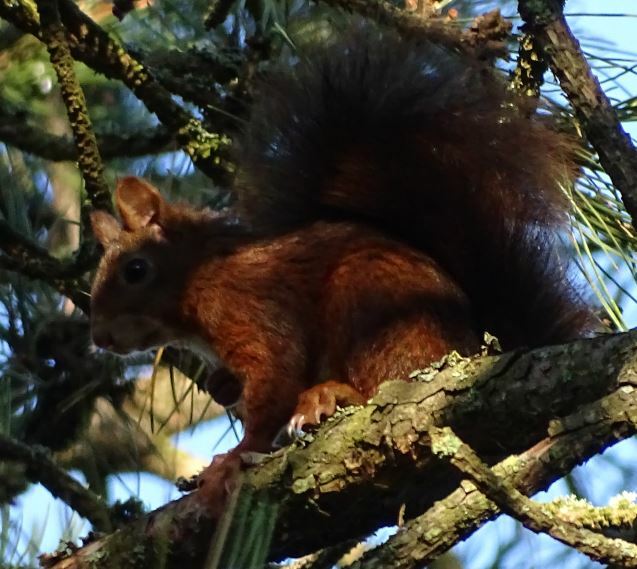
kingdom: Animalia
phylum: Chordata
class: Mammalia
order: Rodentia
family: Sciuridae
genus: Sciurus
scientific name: Sciurus vulgaris
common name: Eurasian red squirrel
